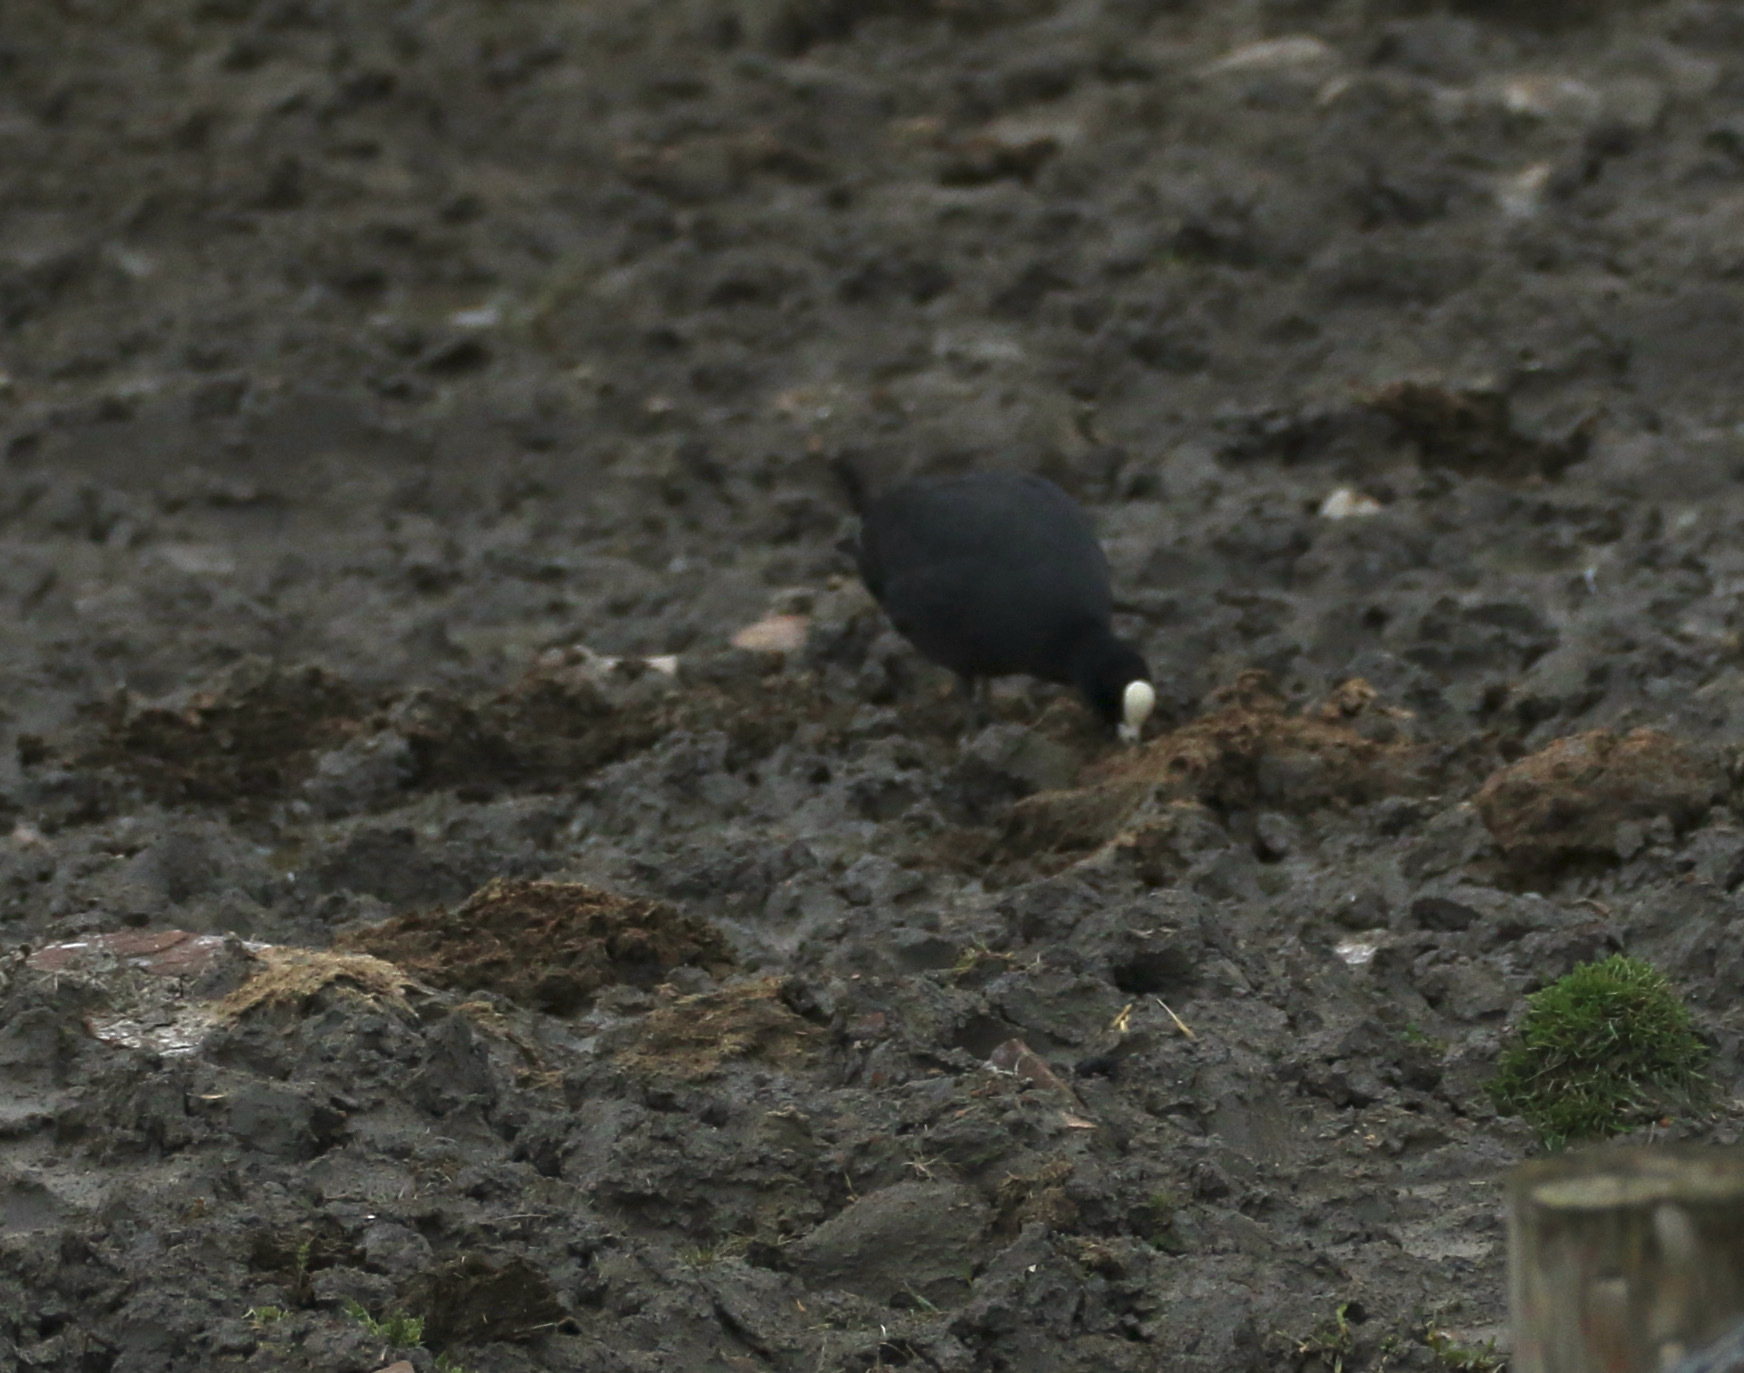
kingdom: Animalia
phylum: Chordata
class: Aves
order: Gruiformes
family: Rallidae
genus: Fulica
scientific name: Fulica atra
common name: Eurasian coot
